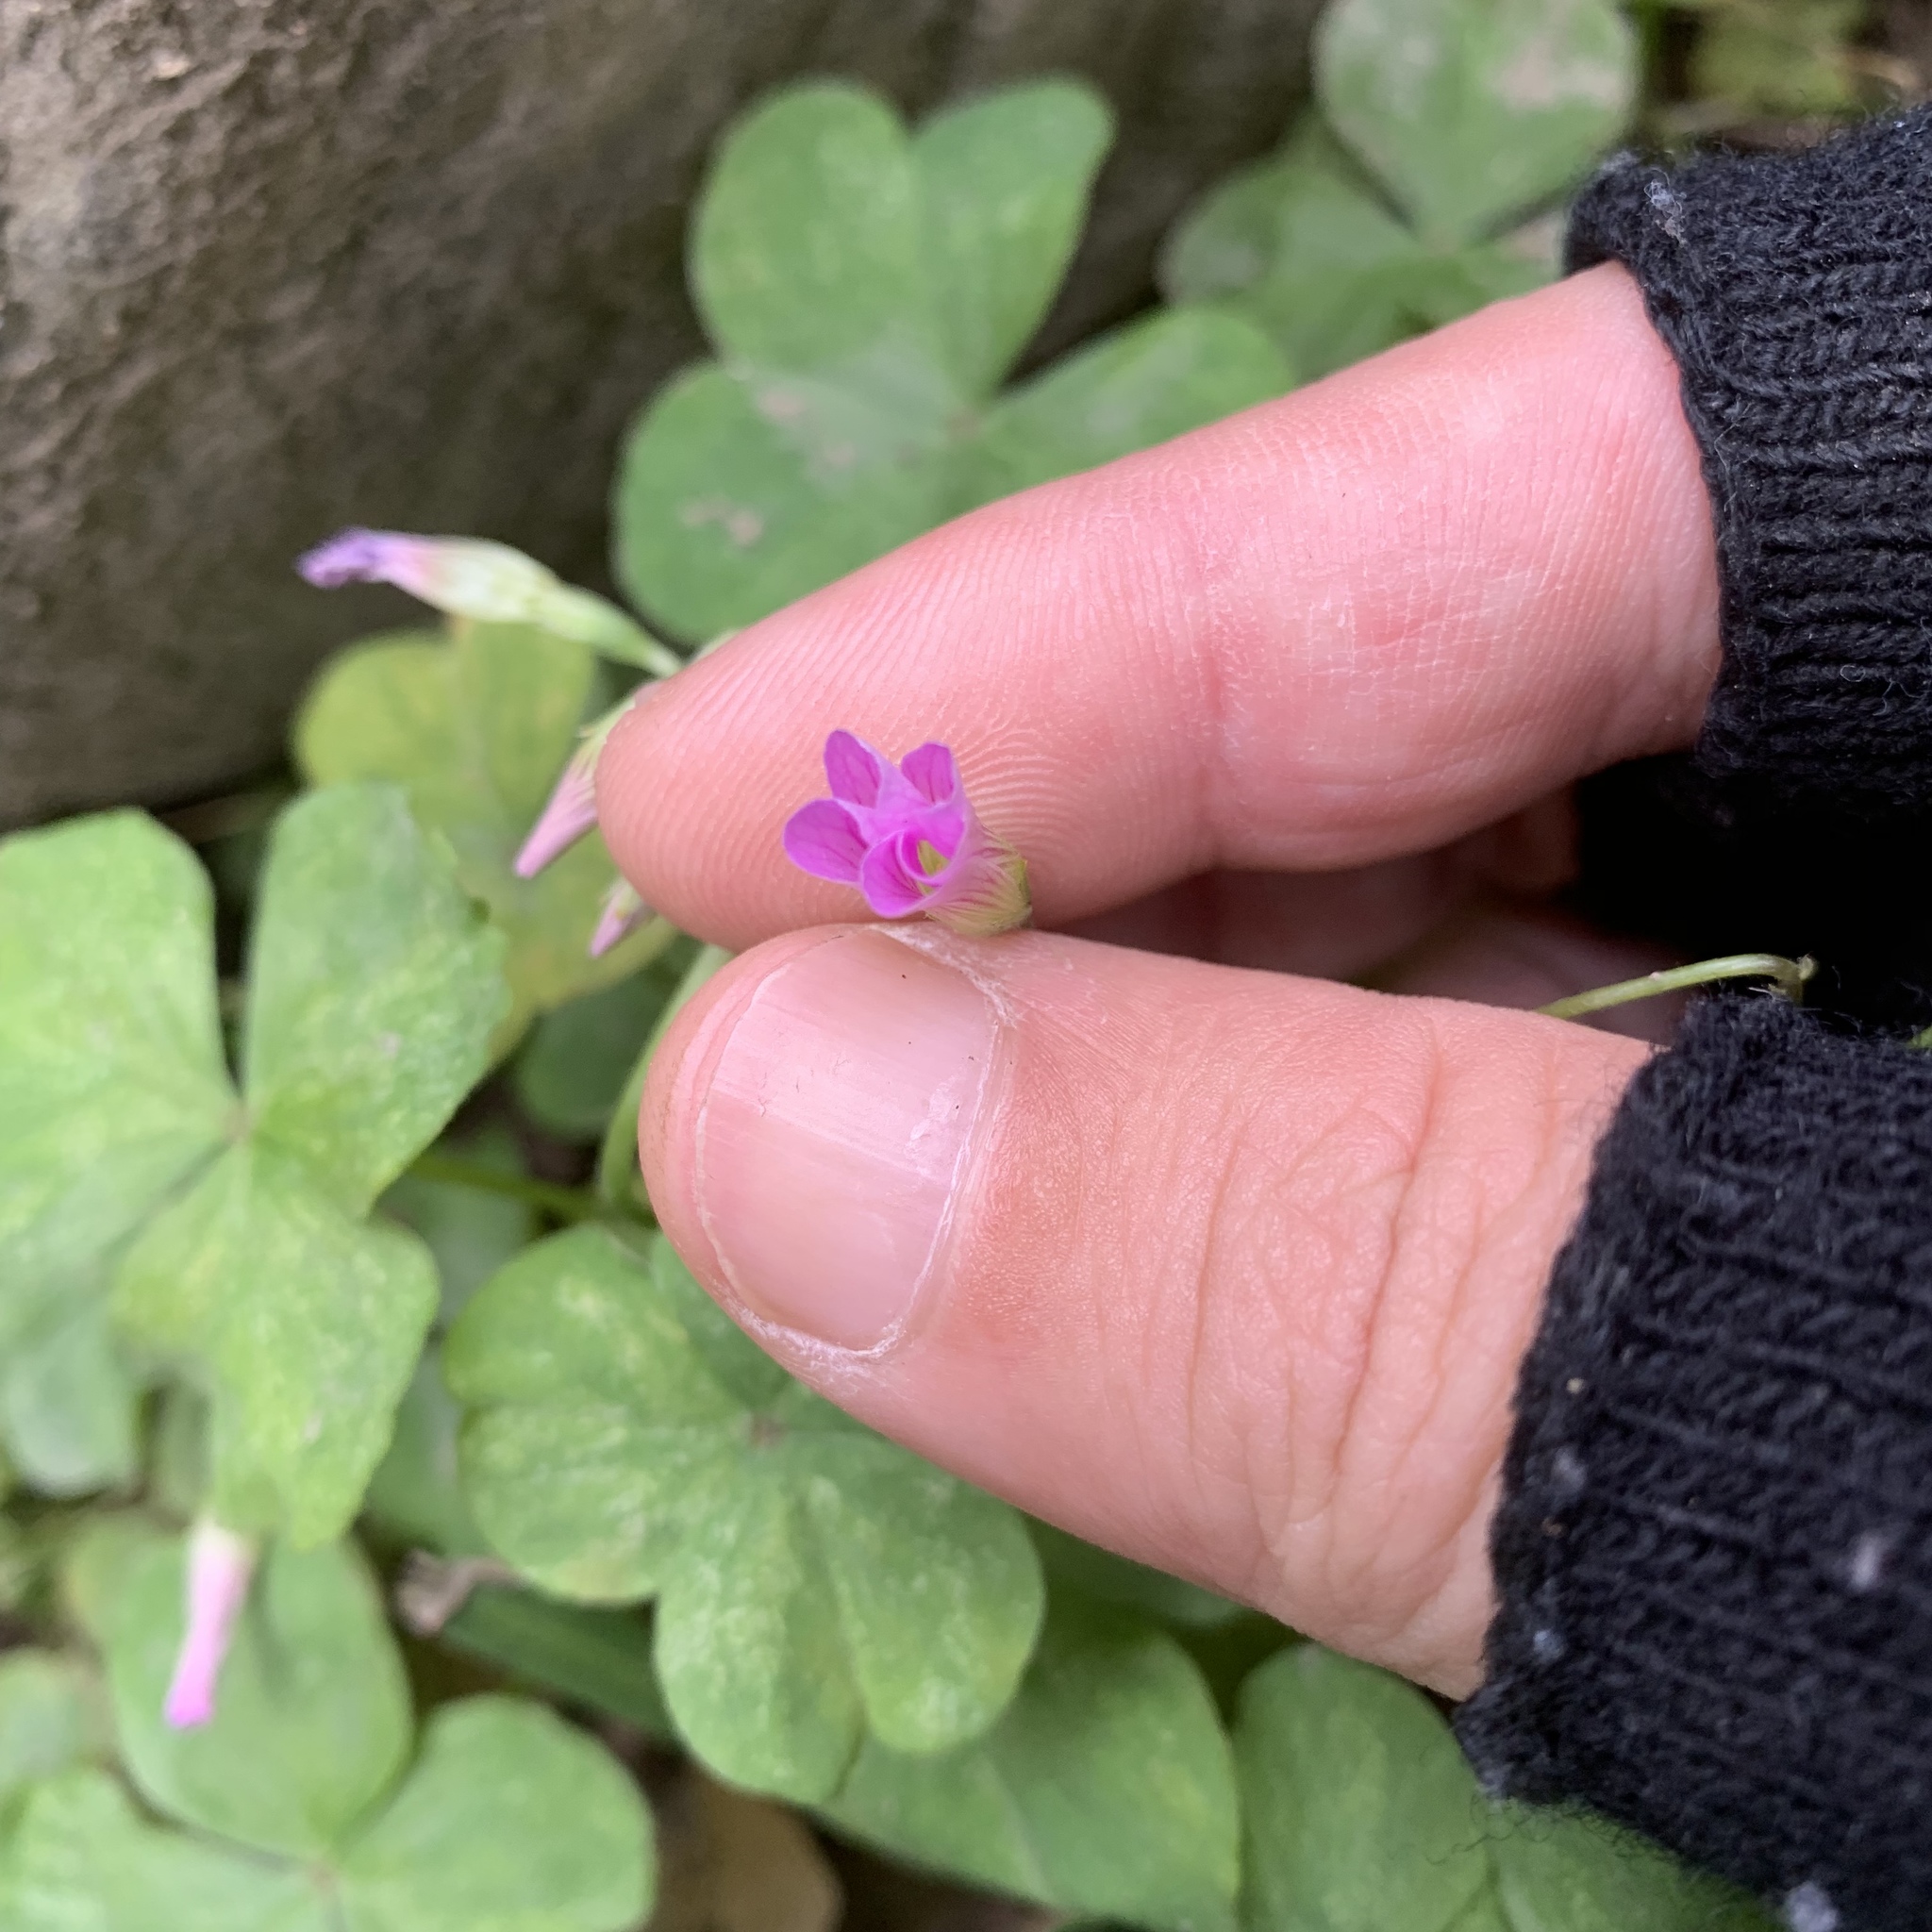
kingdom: Plantae
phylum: Tracheophyta
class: Magnoliopsida
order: Oxalidales
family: Oxalidaceae
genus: Oxalis
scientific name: Oxalis debilis
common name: Large-flowered pink-sorrel
